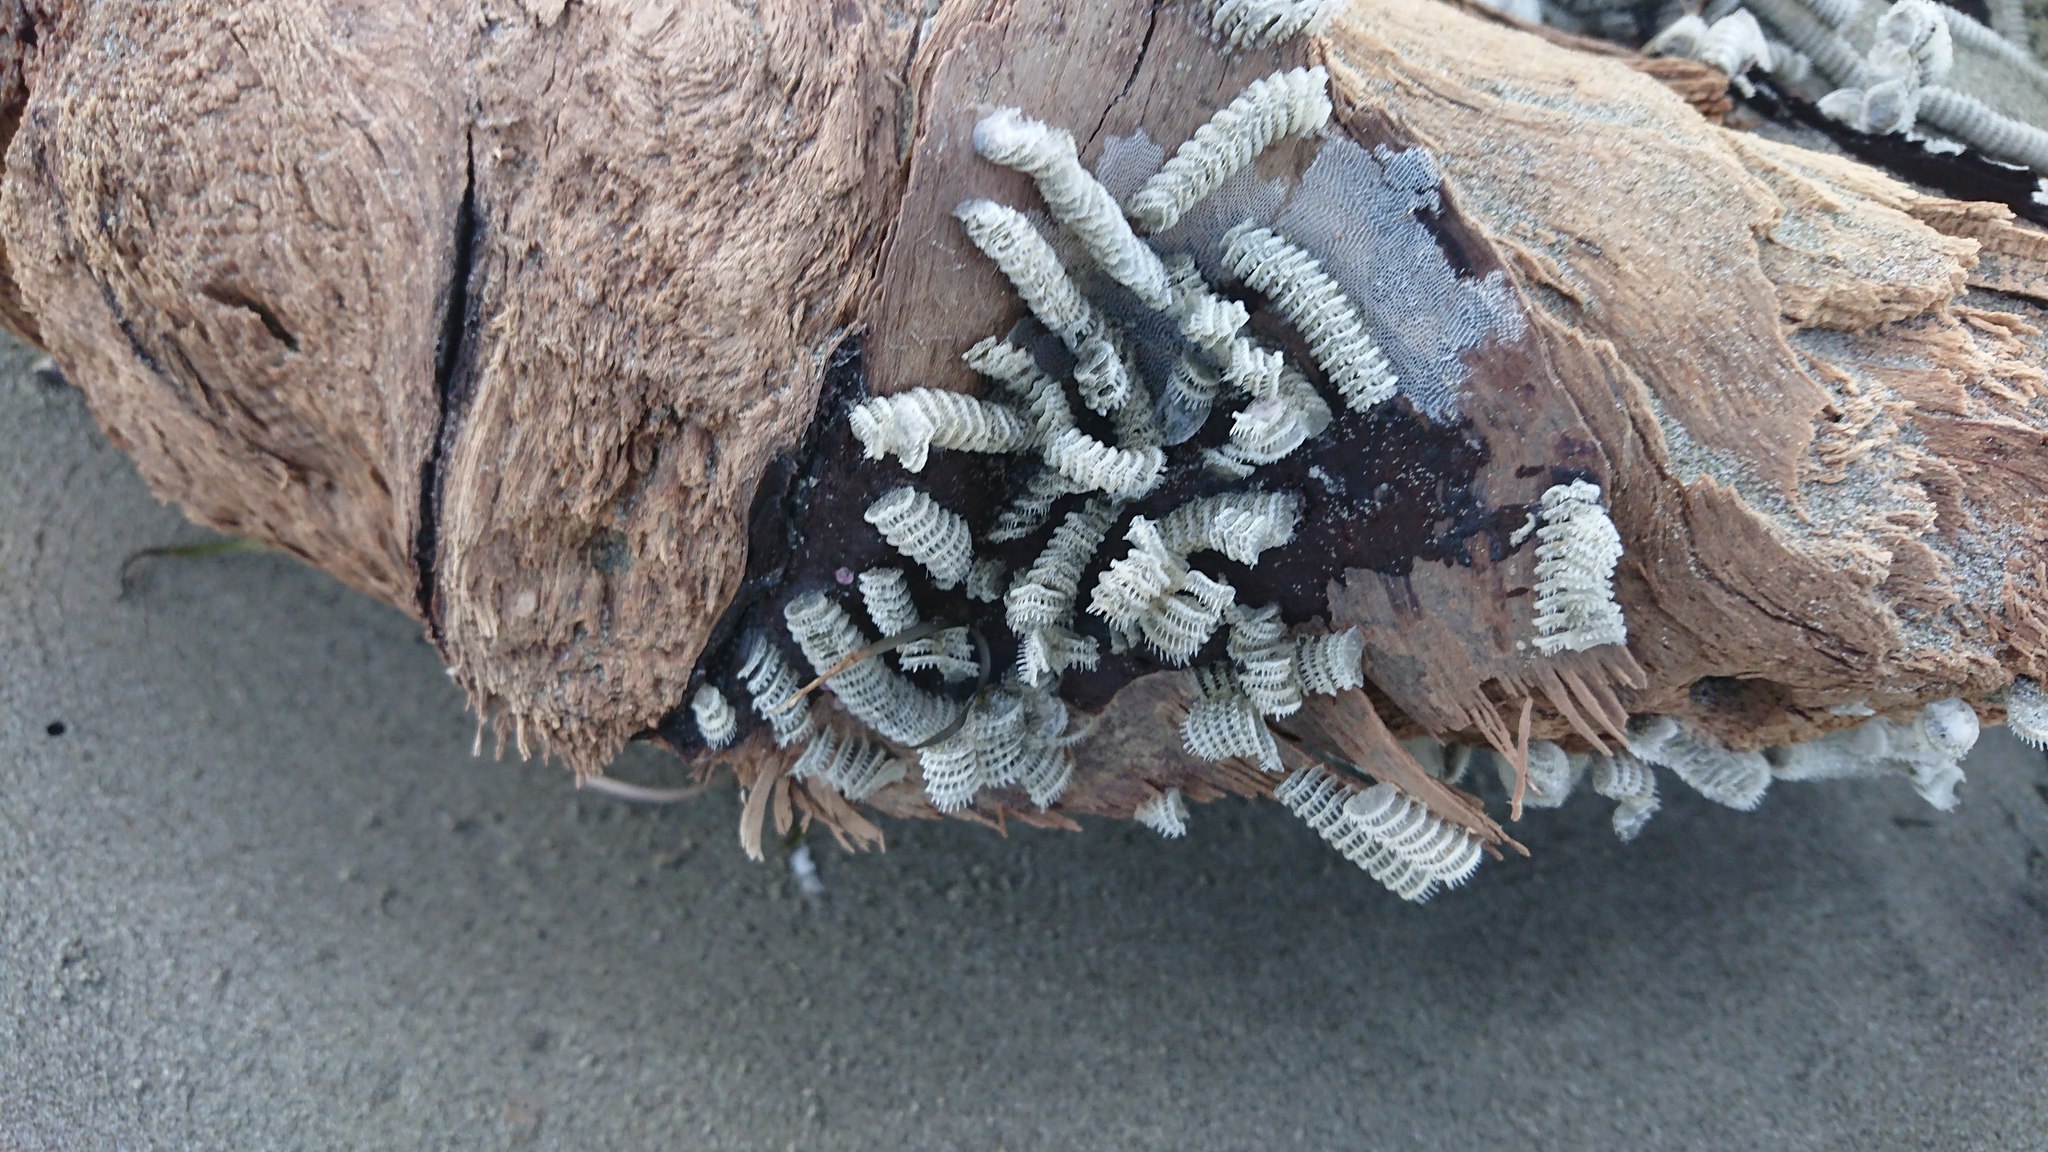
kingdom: Animalia
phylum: Mollusca
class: Gastropoda
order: Neogastropoda
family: Muricidae
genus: Poirieria
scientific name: Poirieria zelandica
